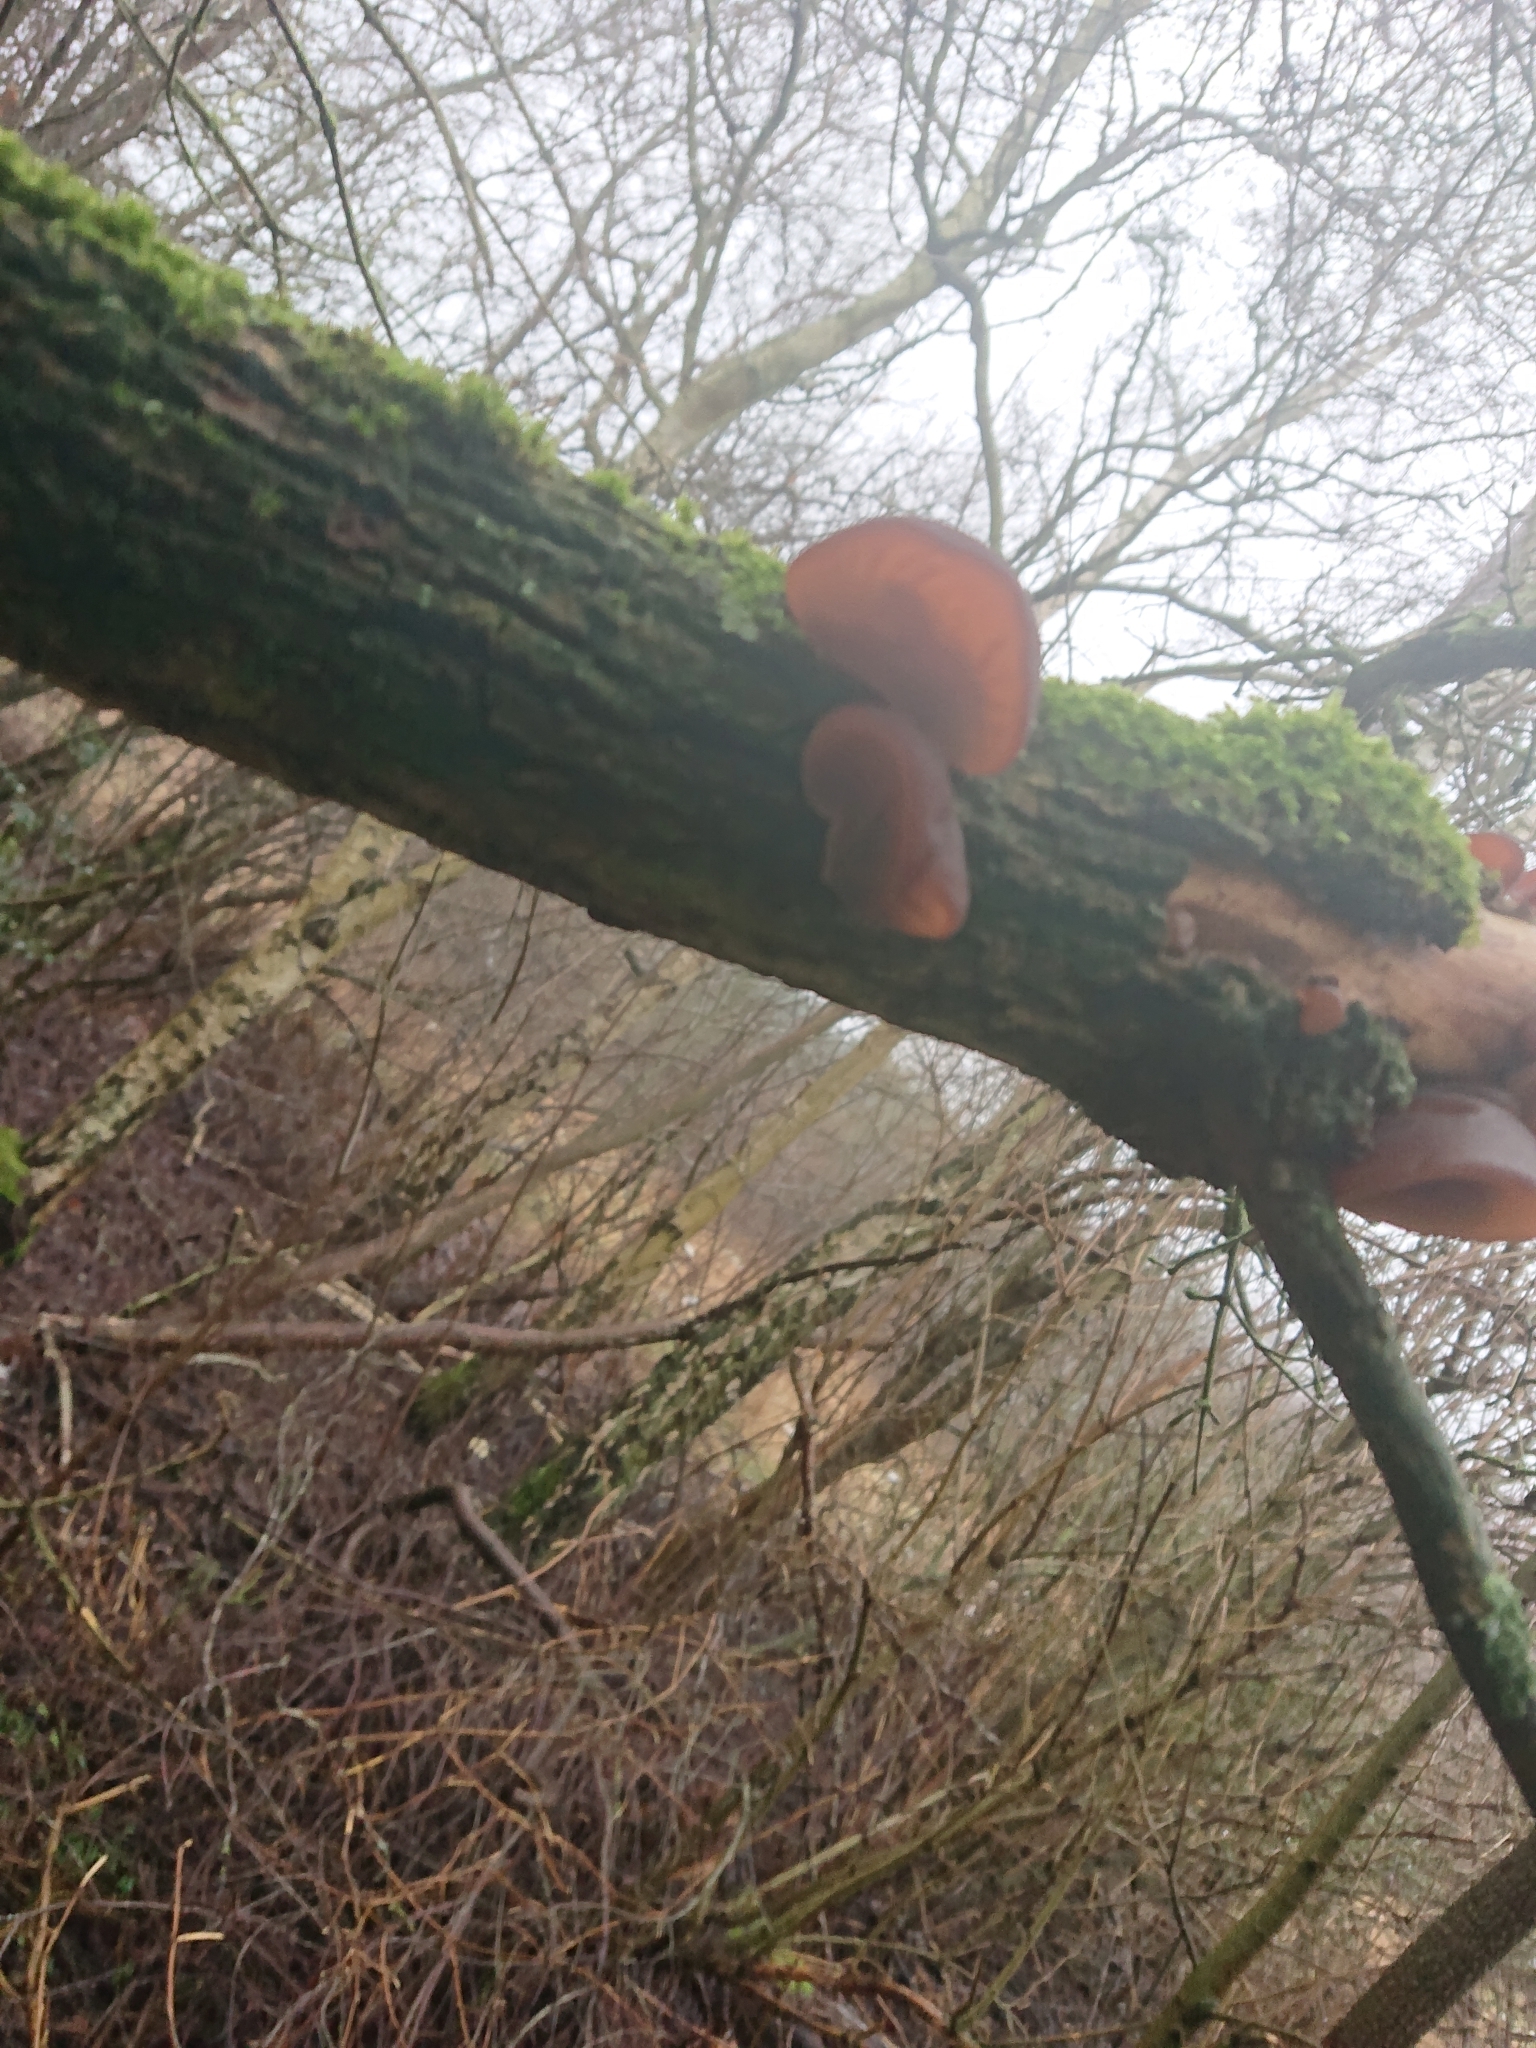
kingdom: Fungi
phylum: Basidiomycota
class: Agaricomycetes
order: Auriculariales
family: Auriculariaceae
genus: Auricularia
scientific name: Auricularia auricula-judae
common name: Jelly ear
